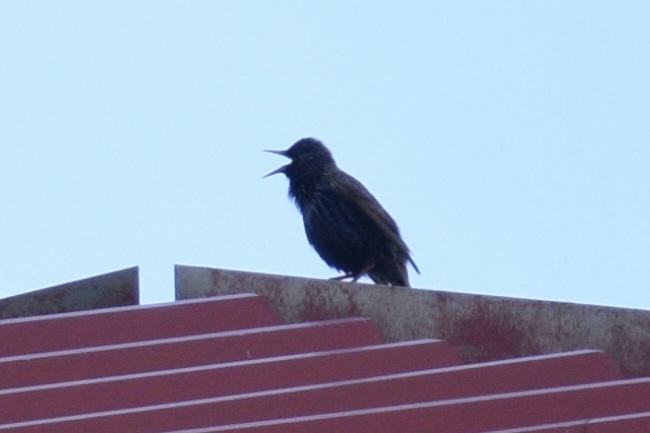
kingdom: Animalia
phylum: Chordata
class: Aves
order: Passeriformes
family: Sturnidae
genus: Sturnus
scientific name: Sturnus vulgaris
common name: Common starling
